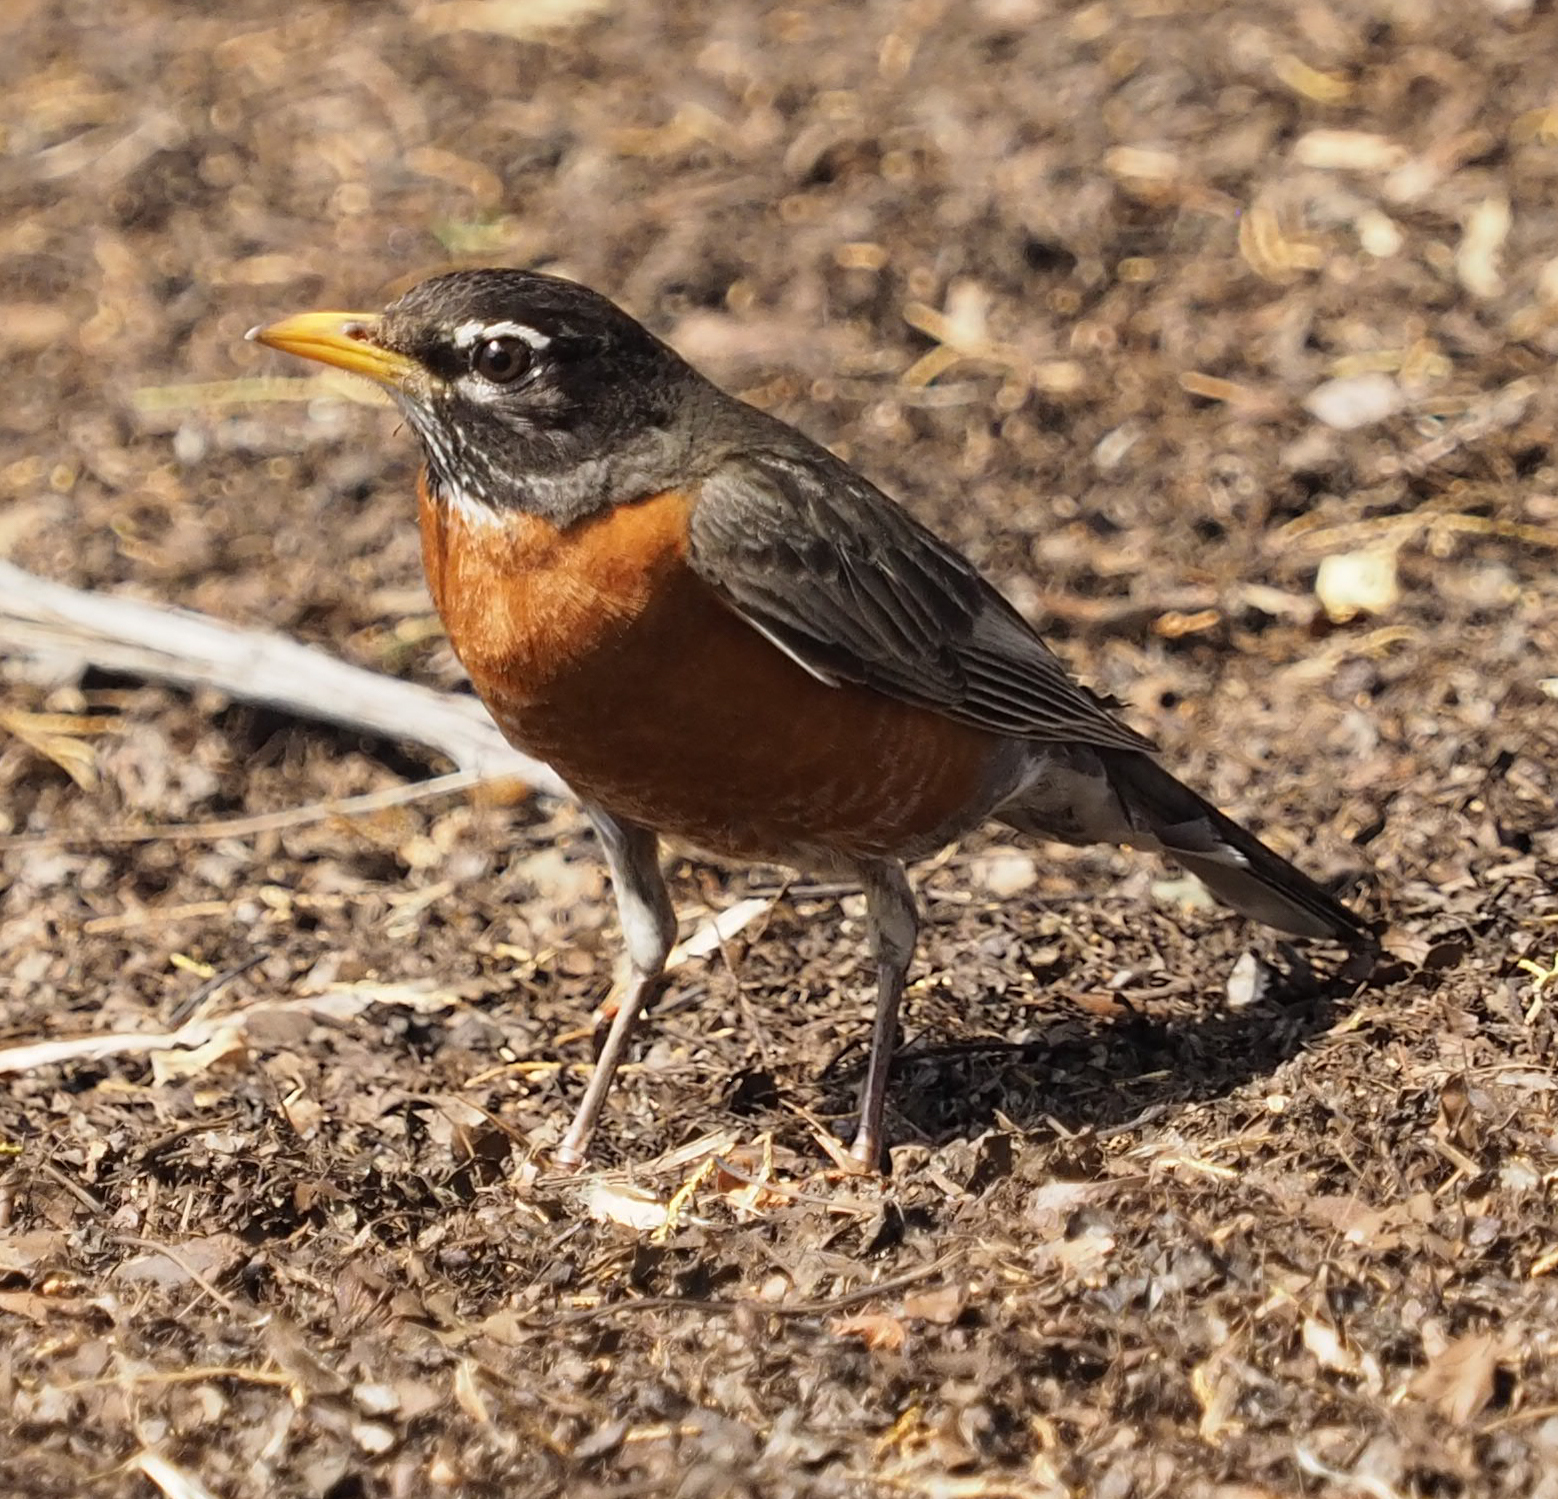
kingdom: Animalia
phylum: Chordata
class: Aves
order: Passeriformes
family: Turdidae
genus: Turdus
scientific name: Turdus migratorius
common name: American robin
